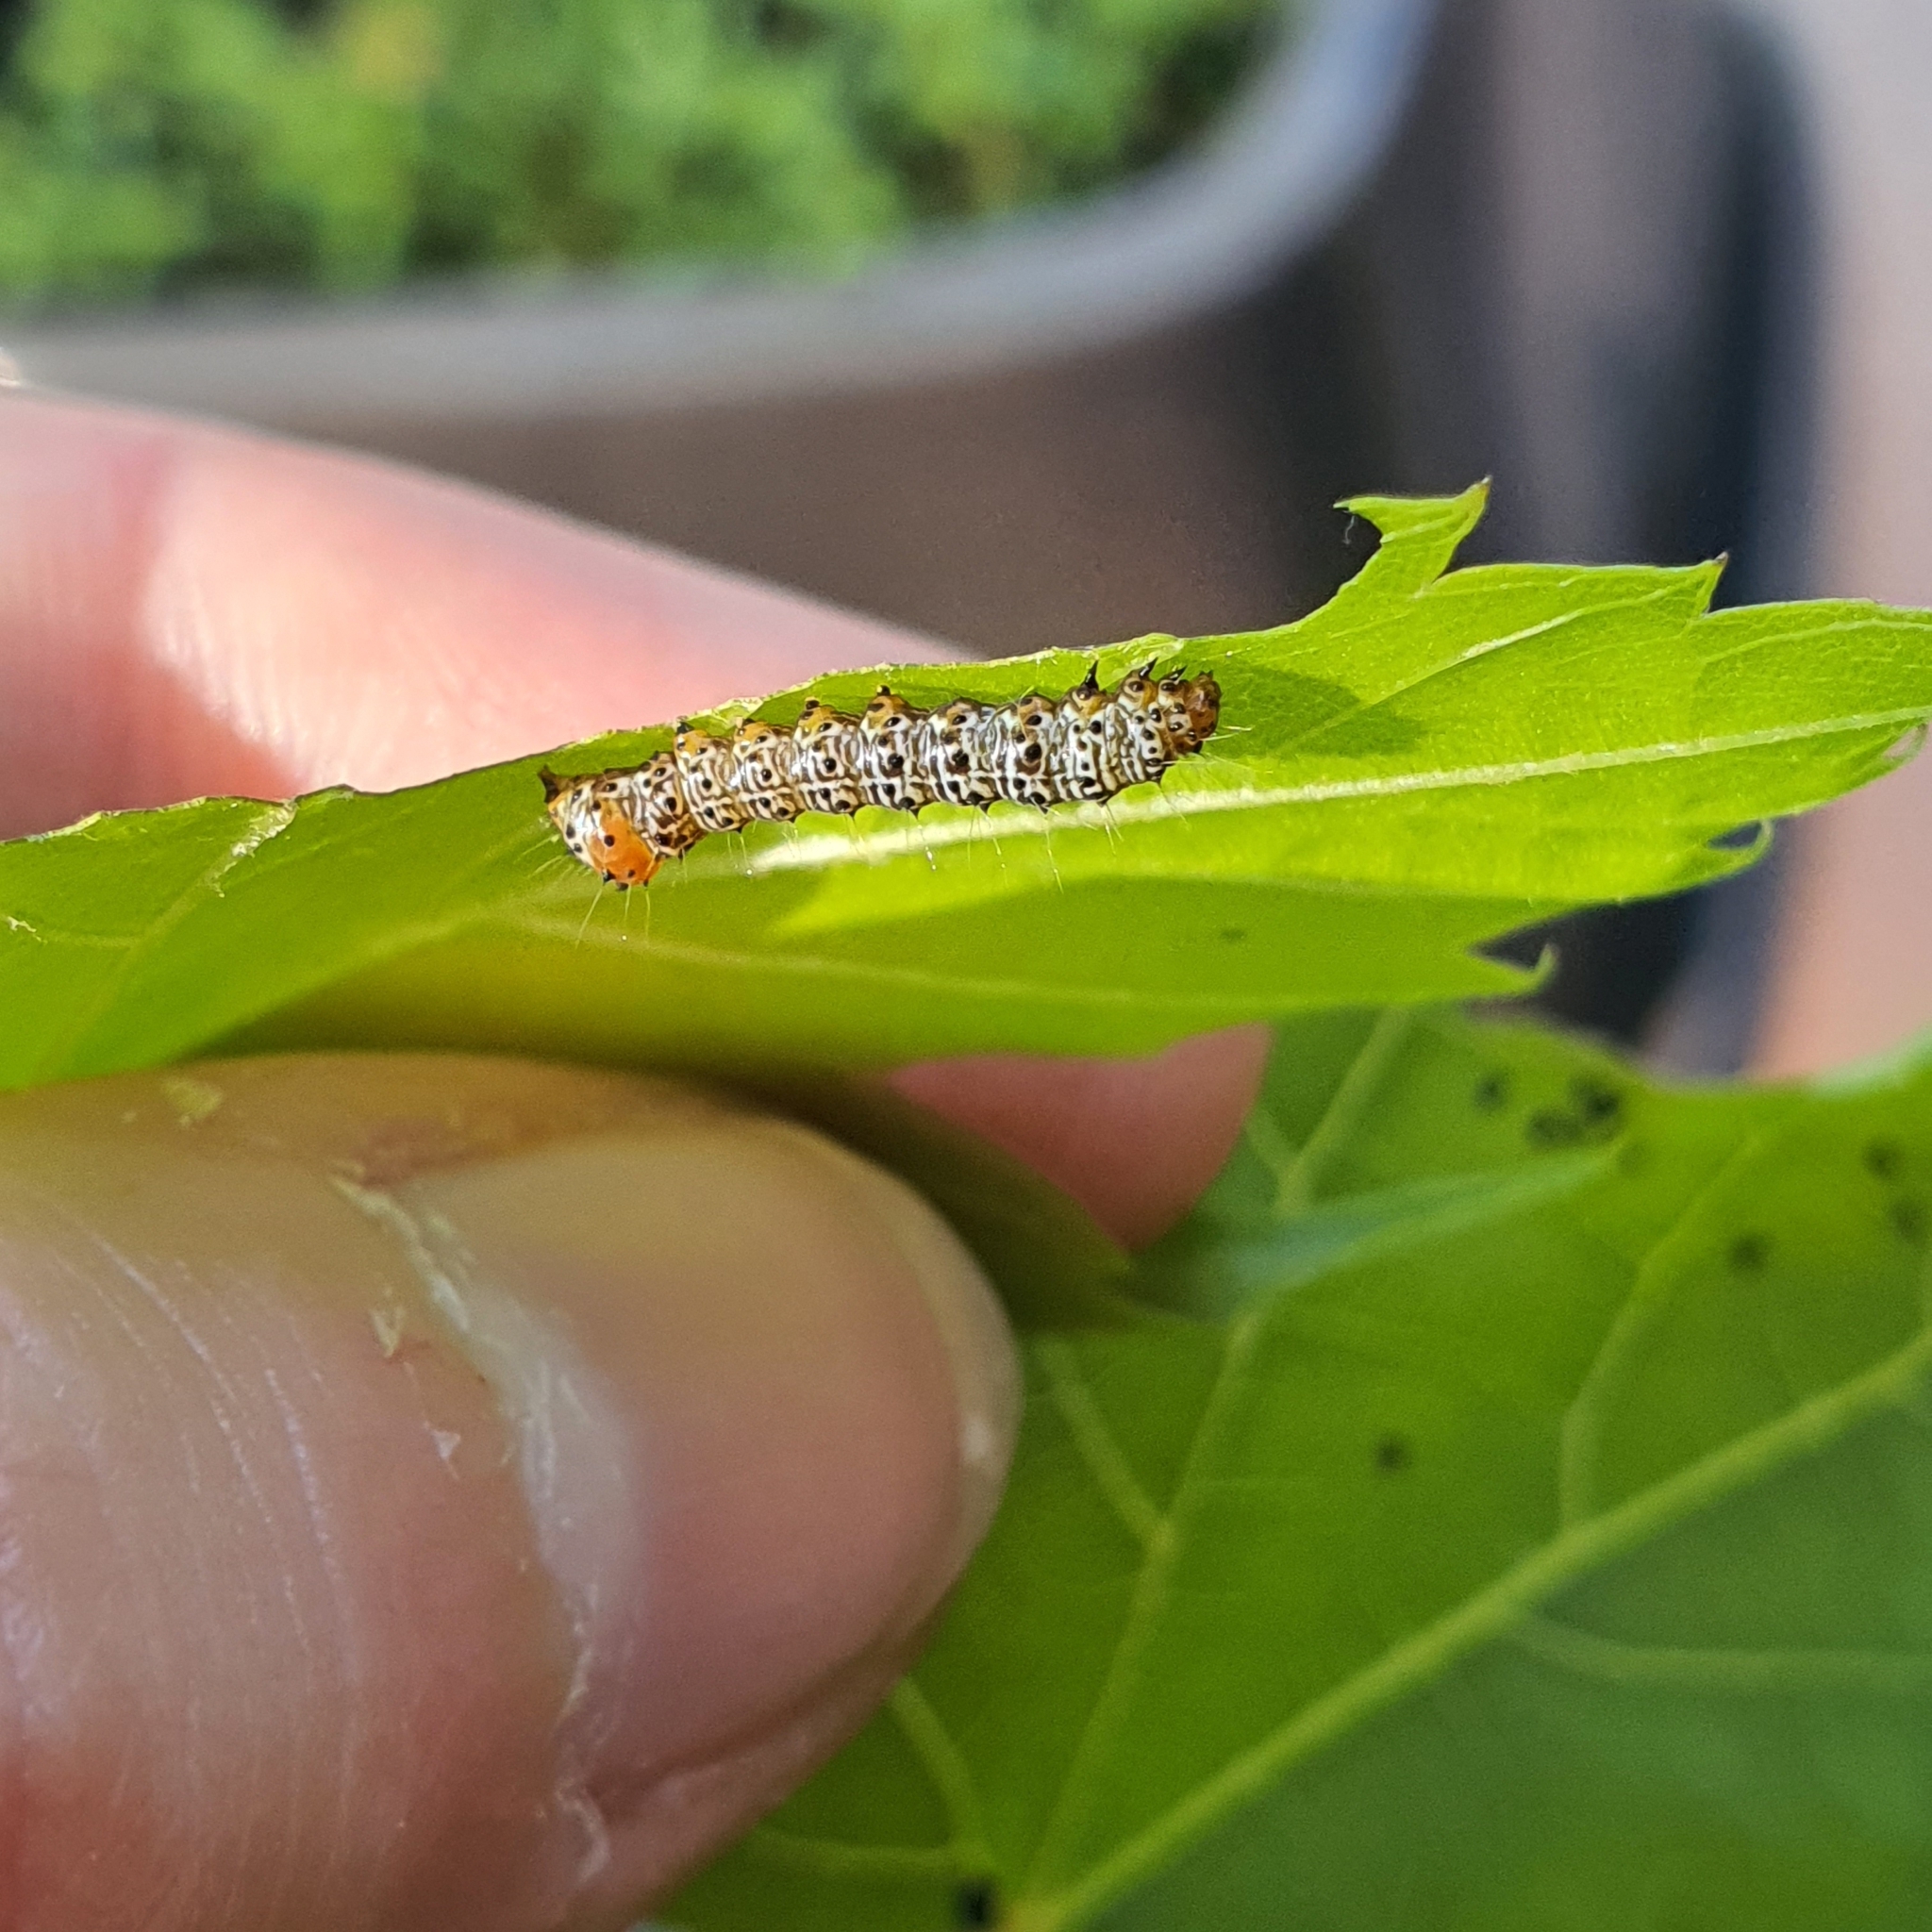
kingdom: Animalia
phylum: Arthropoda
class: Insecta
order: Lepidoptera
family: Noctuidae
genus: Phalaenoides
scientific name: Phalaenoides glycinae
